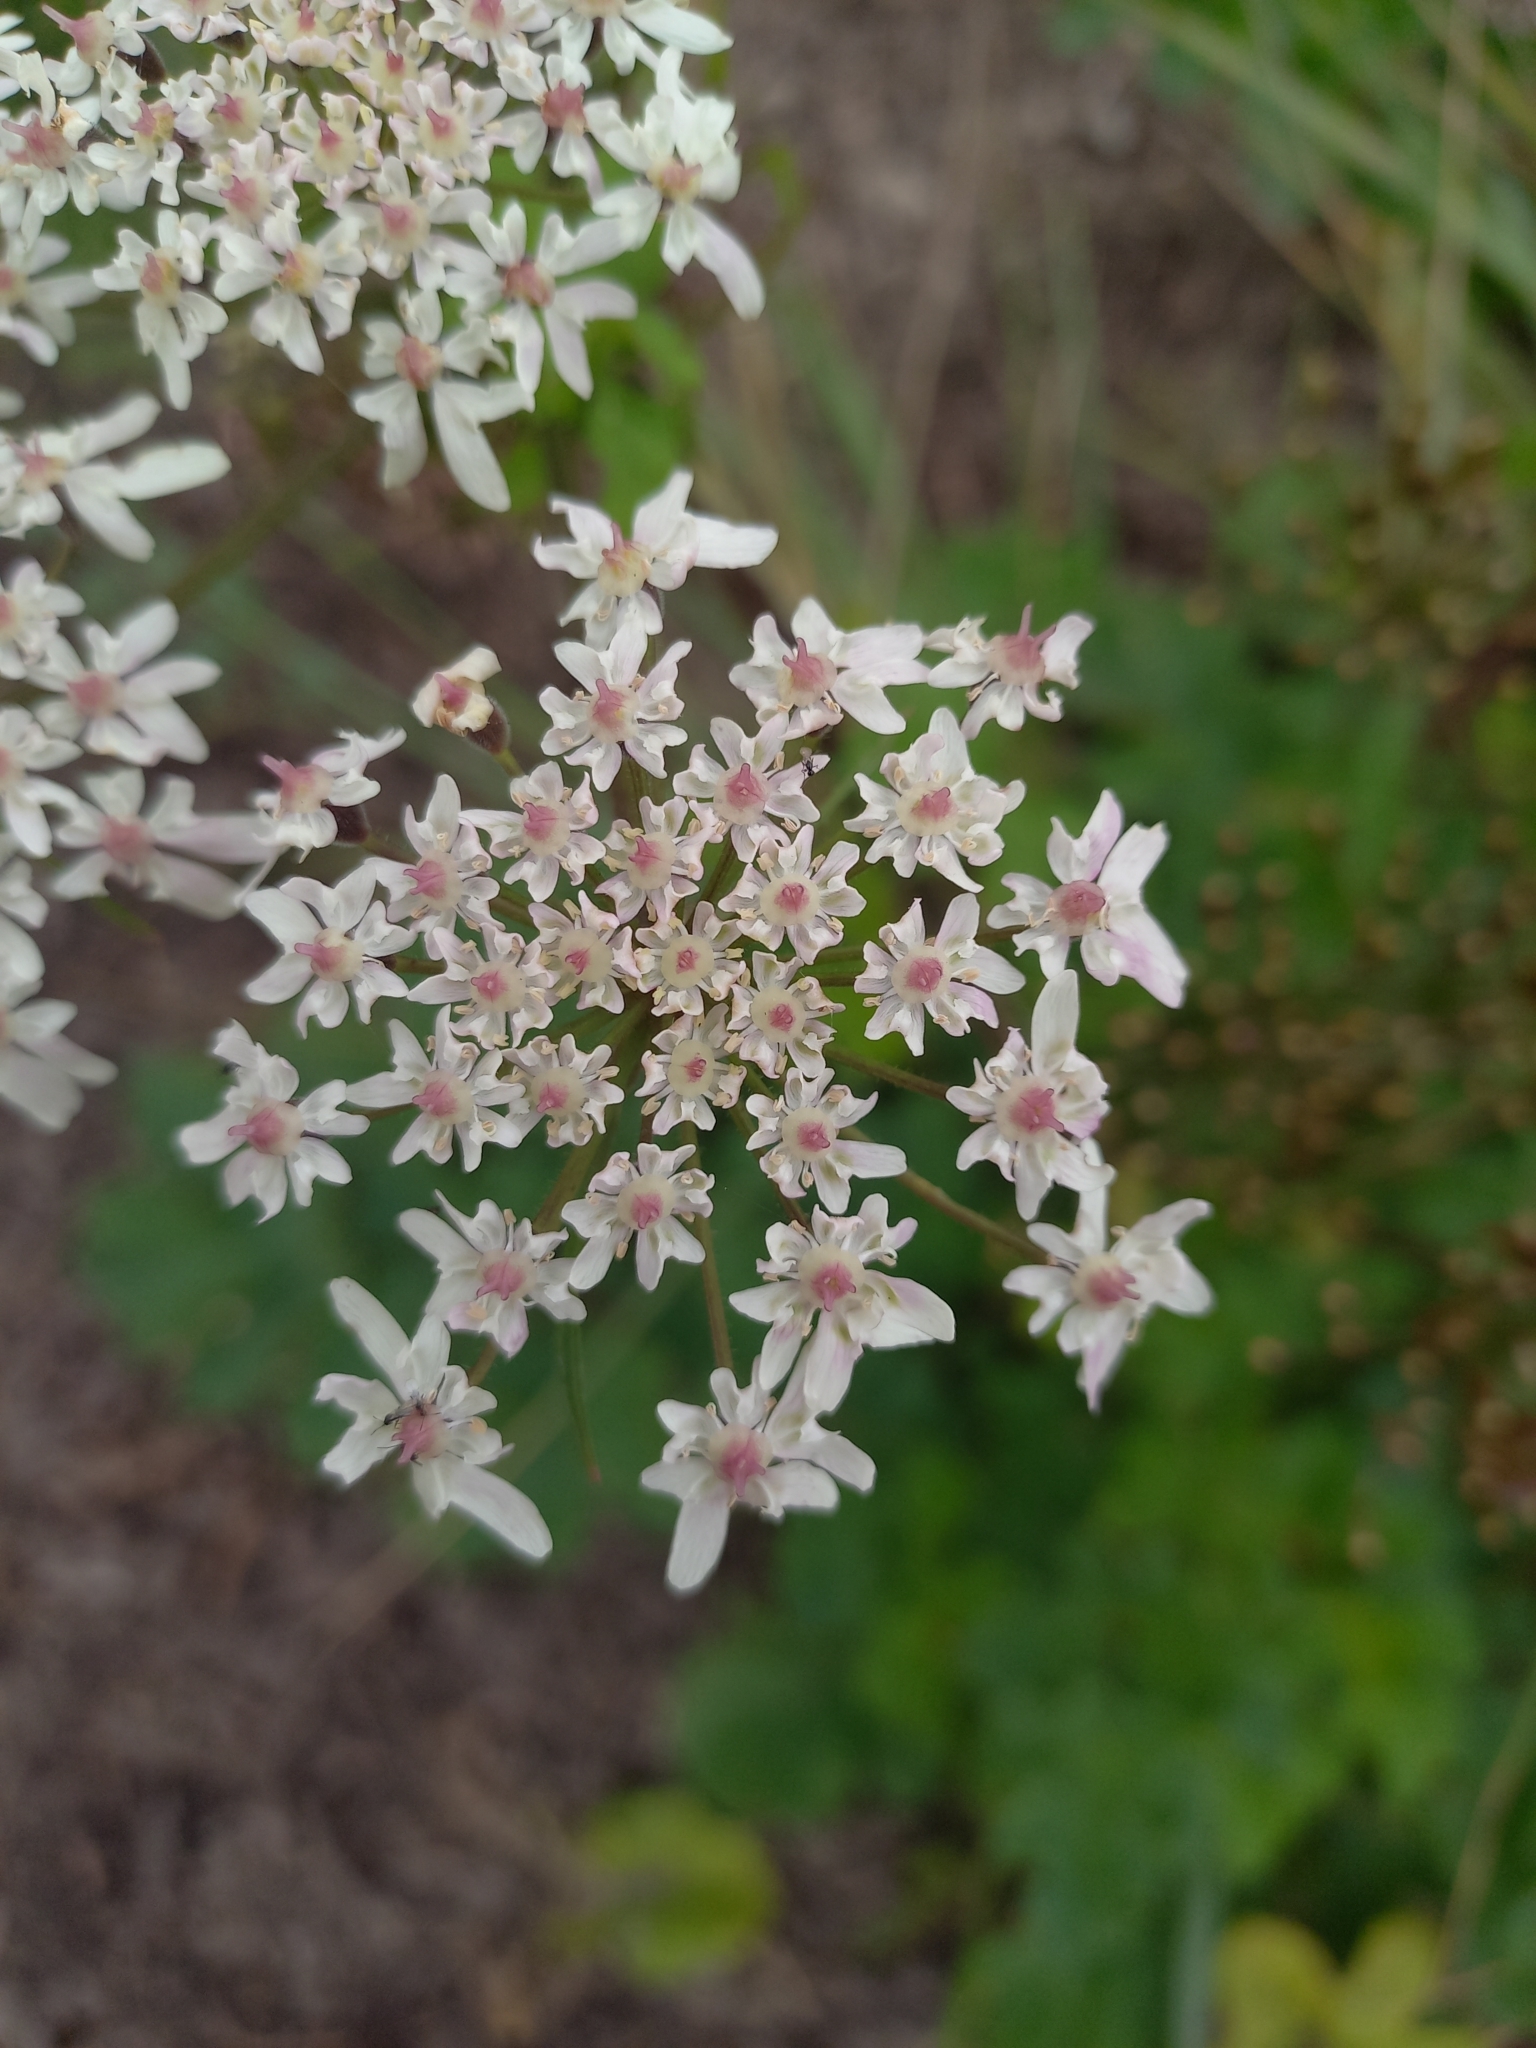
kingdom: Plantae
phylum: Tracheophyta
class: Magnoliopsida
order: Apiales
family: Apiaceae
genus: Heracleum
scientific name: Heracleum sphondylium
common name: Hogweed
